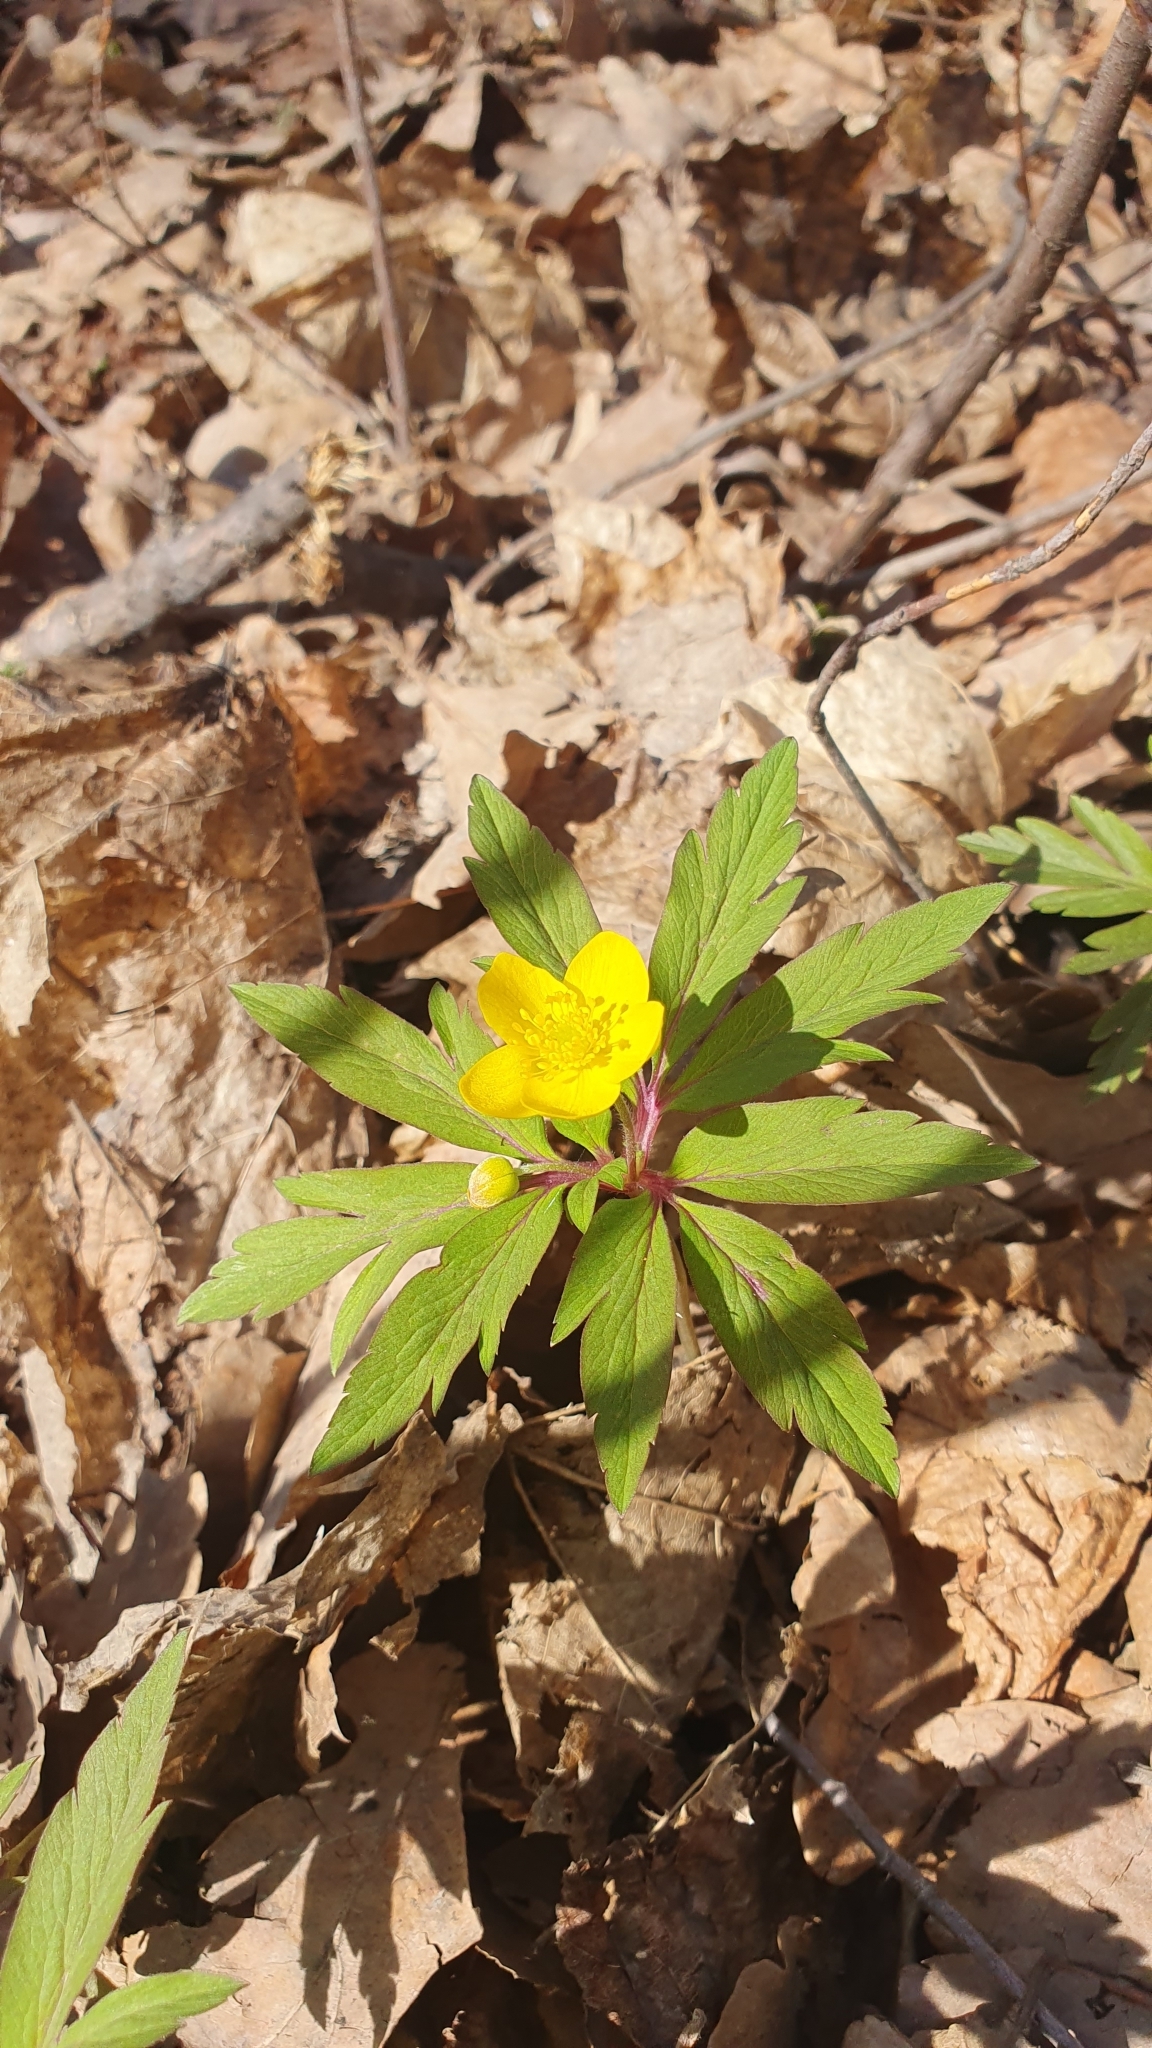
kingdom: Plantae
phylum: Tracheophyta
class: Magnoliopsida
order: Ranunculales
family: Ranunculaceae
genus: Anemone
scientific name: Anemone ranunculoides
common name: Yellow anemone
